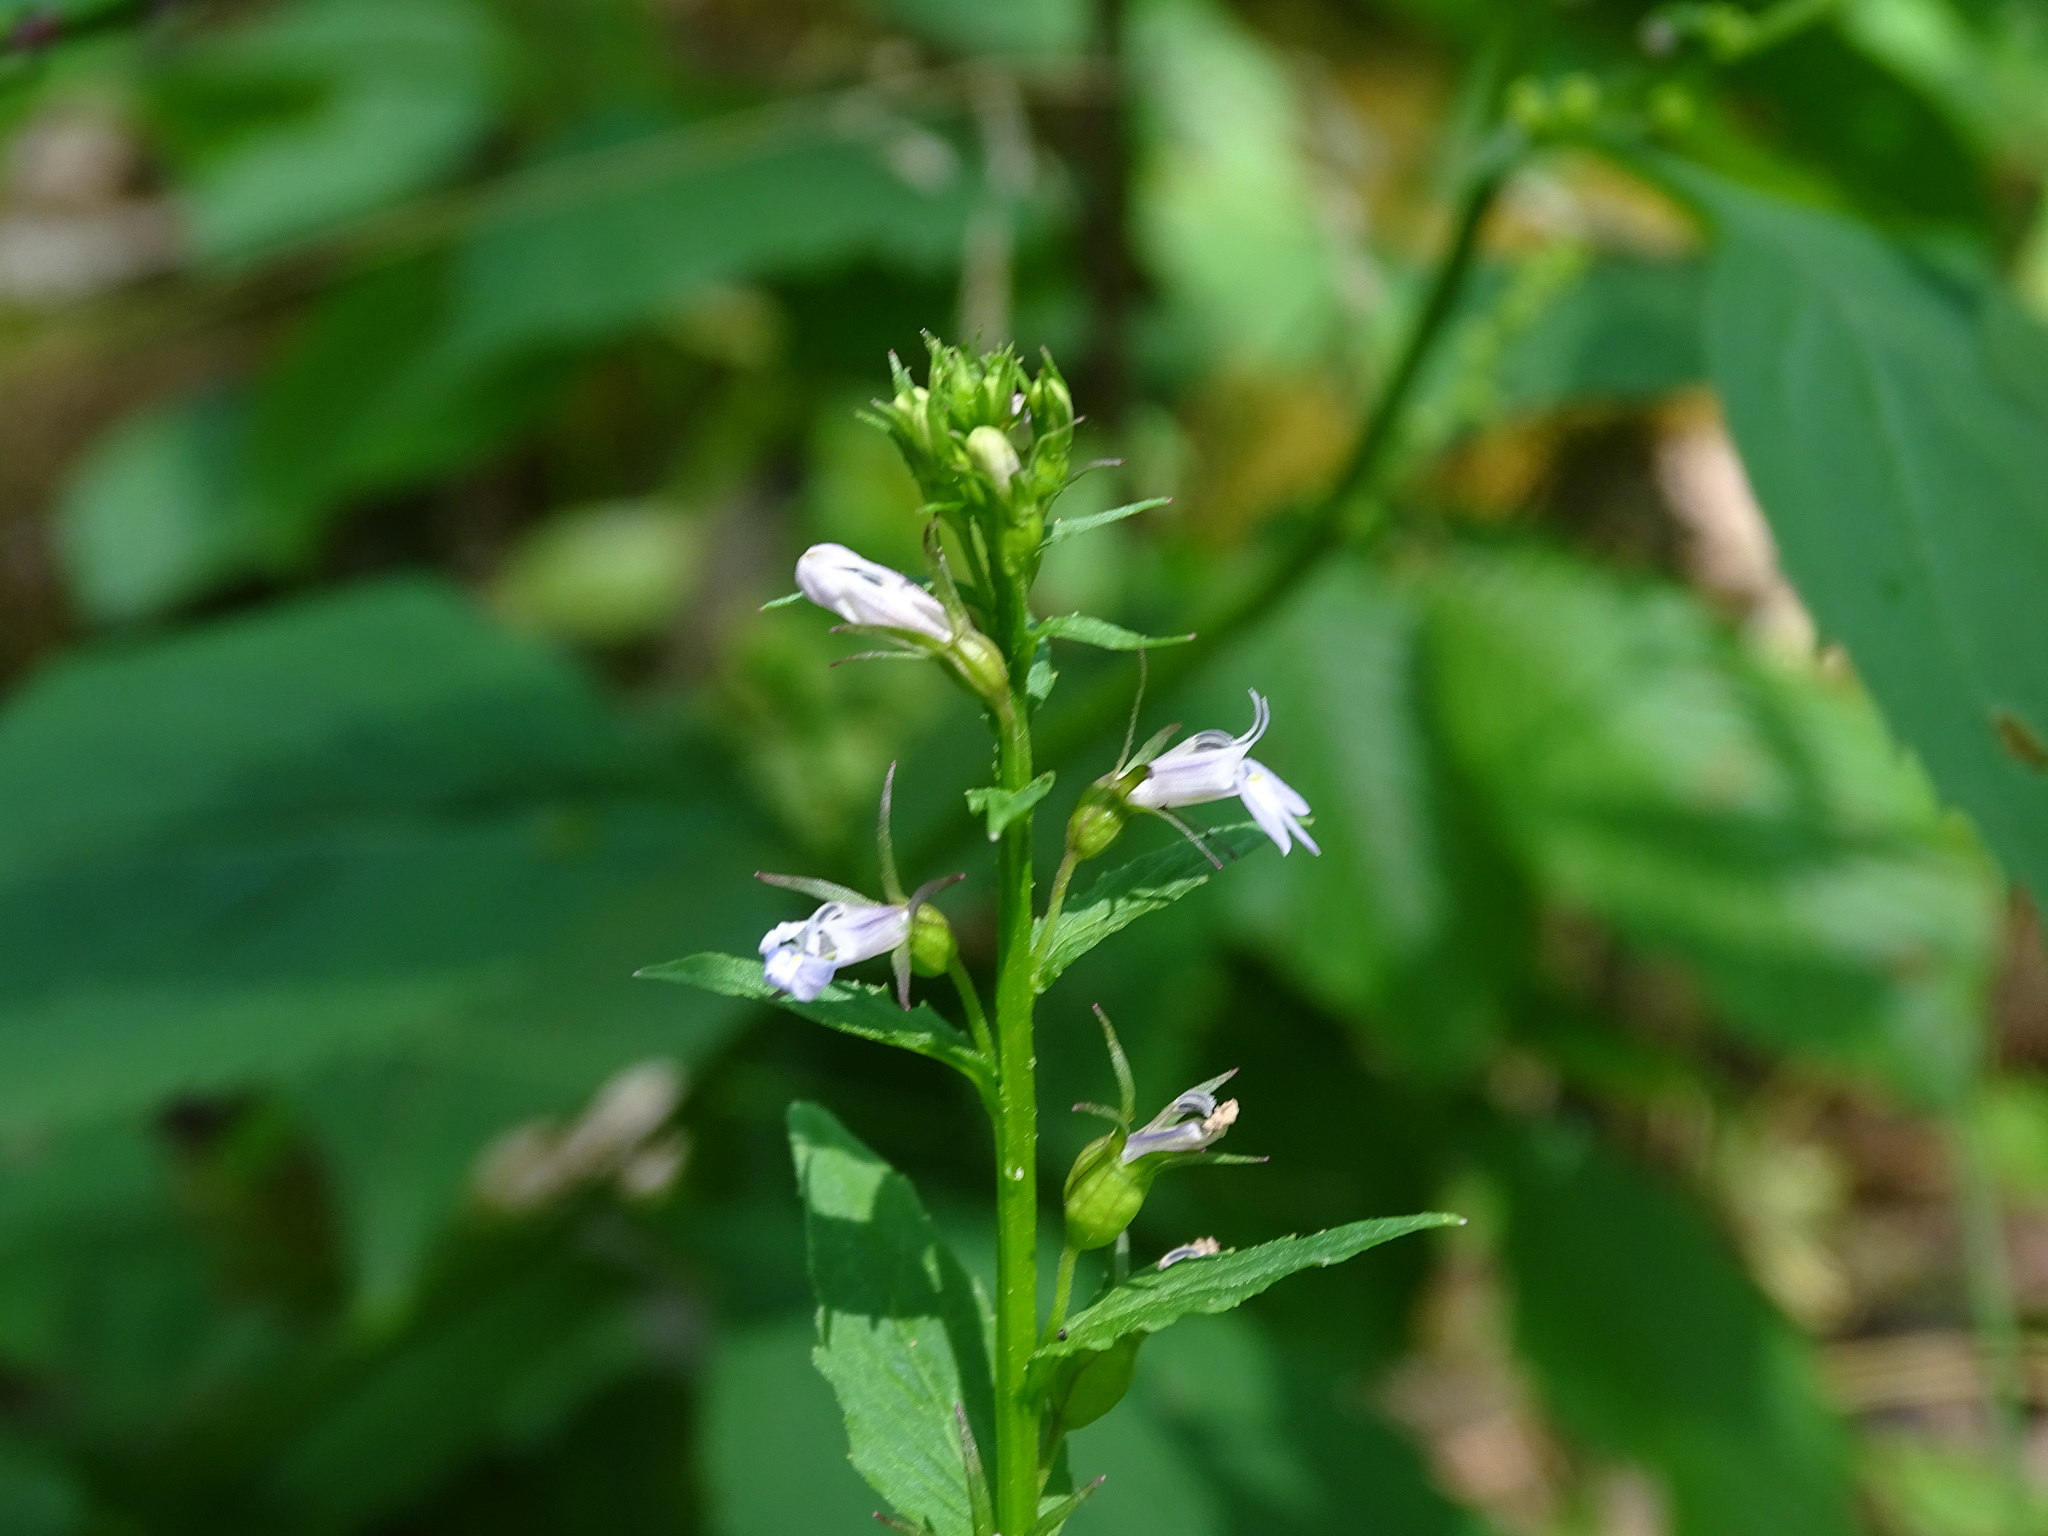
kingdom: Plantae
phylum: Tracheophyta
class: Magnoliopsida
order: Asterales
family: Campanulaceae
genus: Lobelia
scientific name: Lobelia inflata
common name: Indian tobacco
